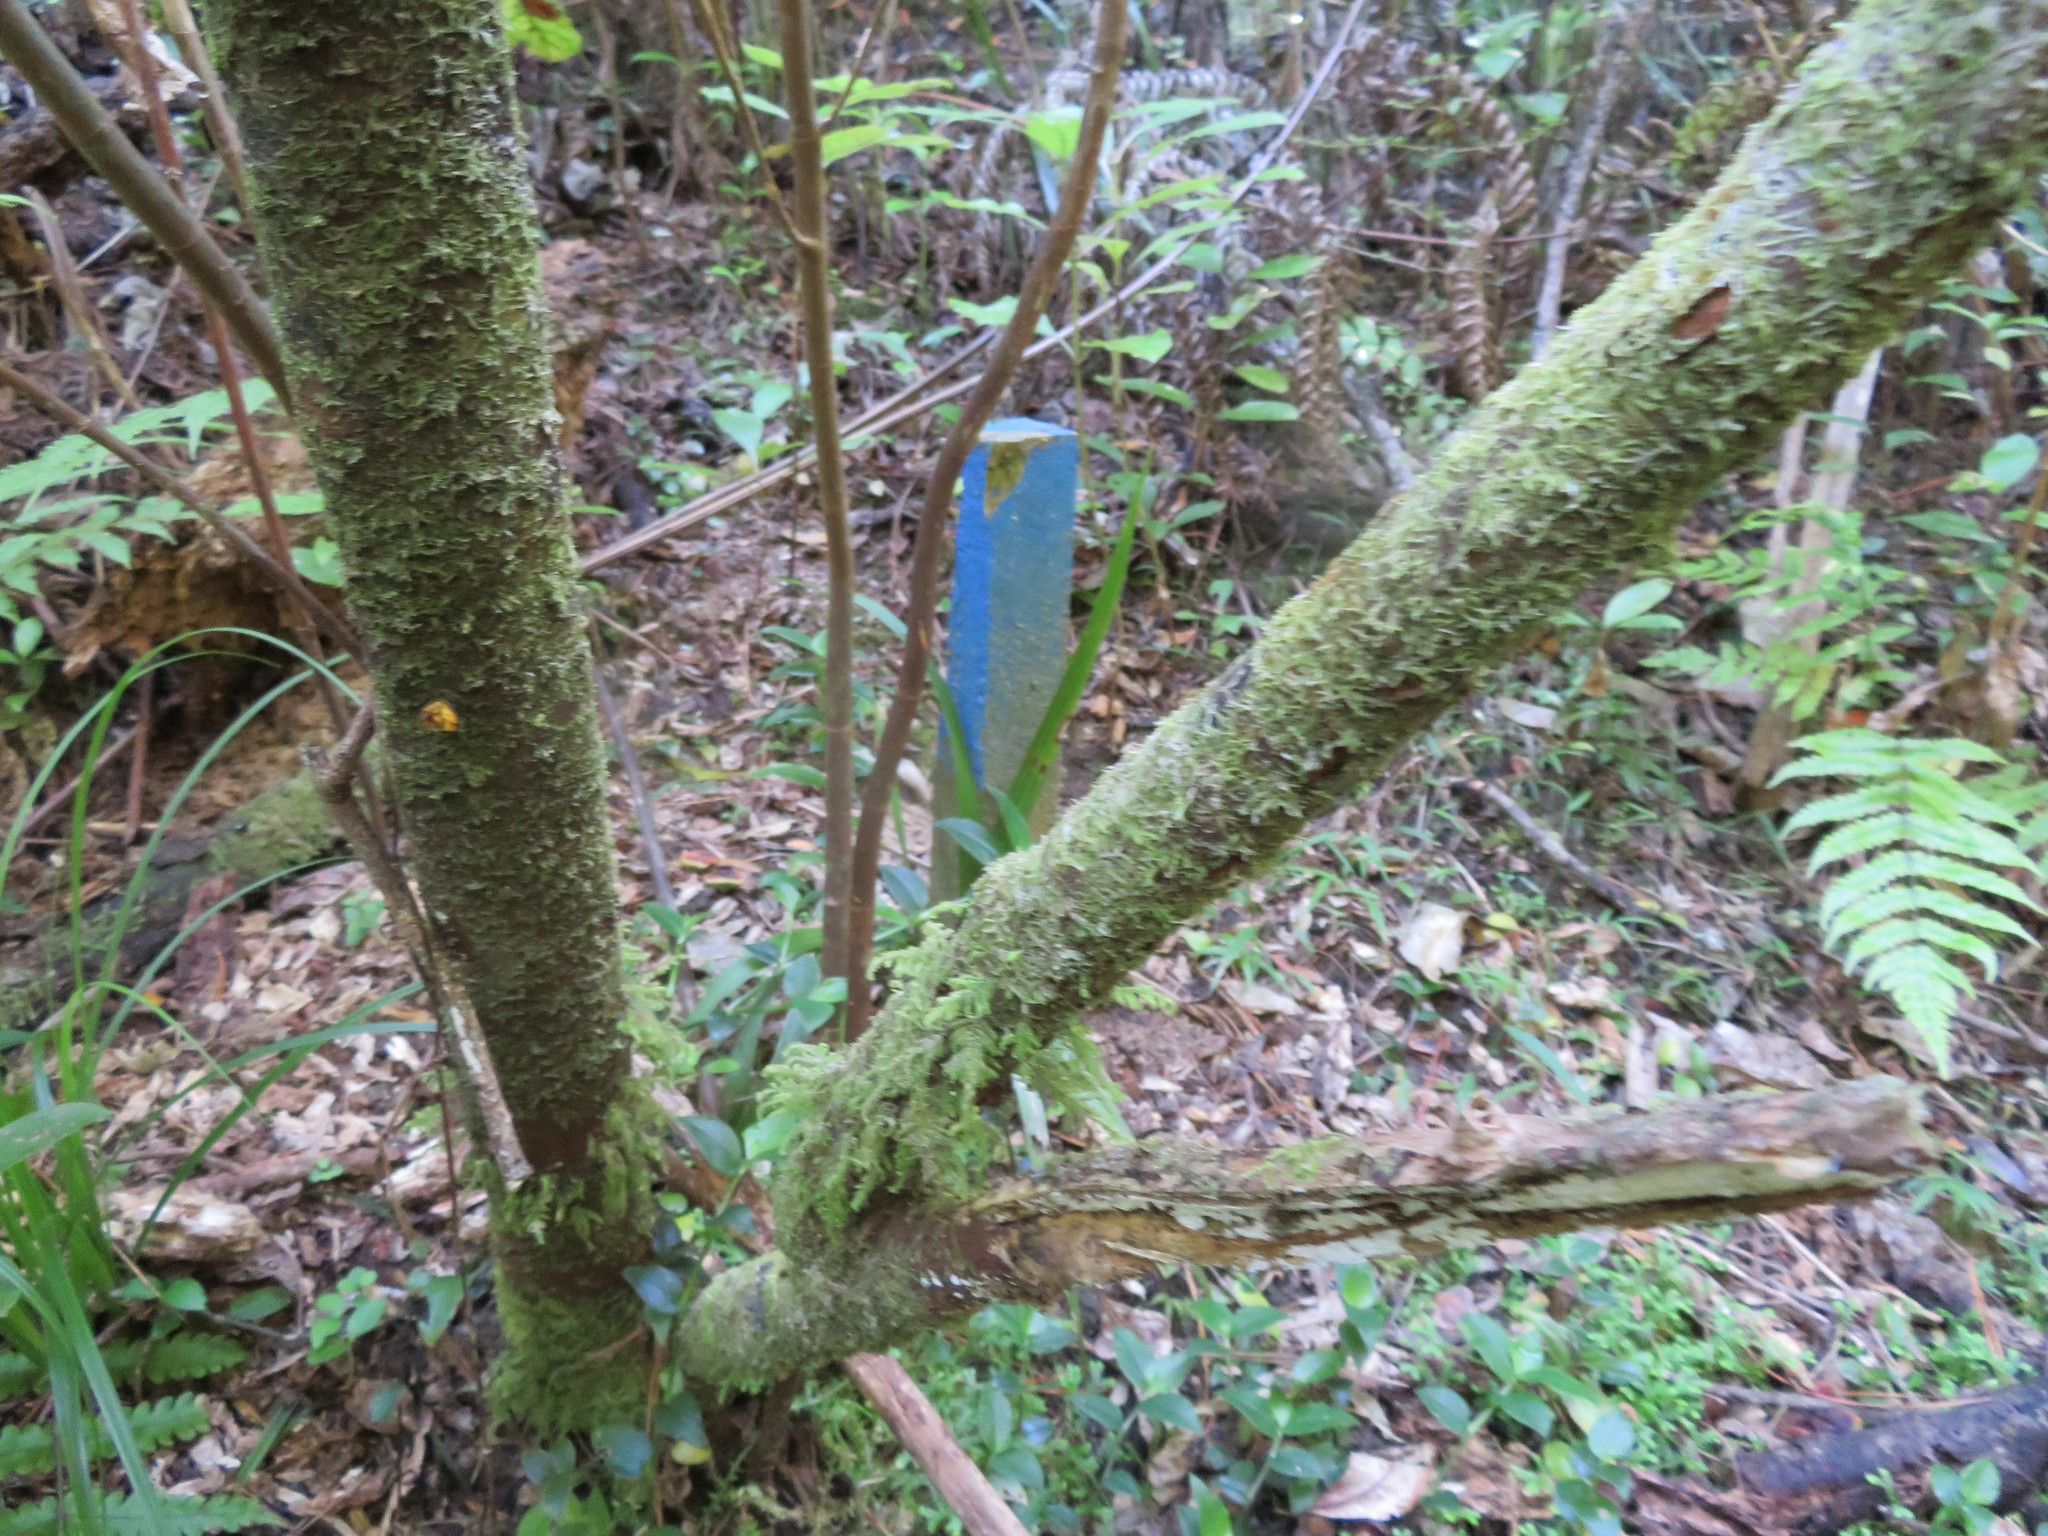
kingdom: Plantae
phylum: Tracheophyta
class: Liliopsida
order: Commelinales
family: Commelinaceae
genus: Tradescantia
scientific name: Tradescantia fluminensis
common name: Wandering-jew
